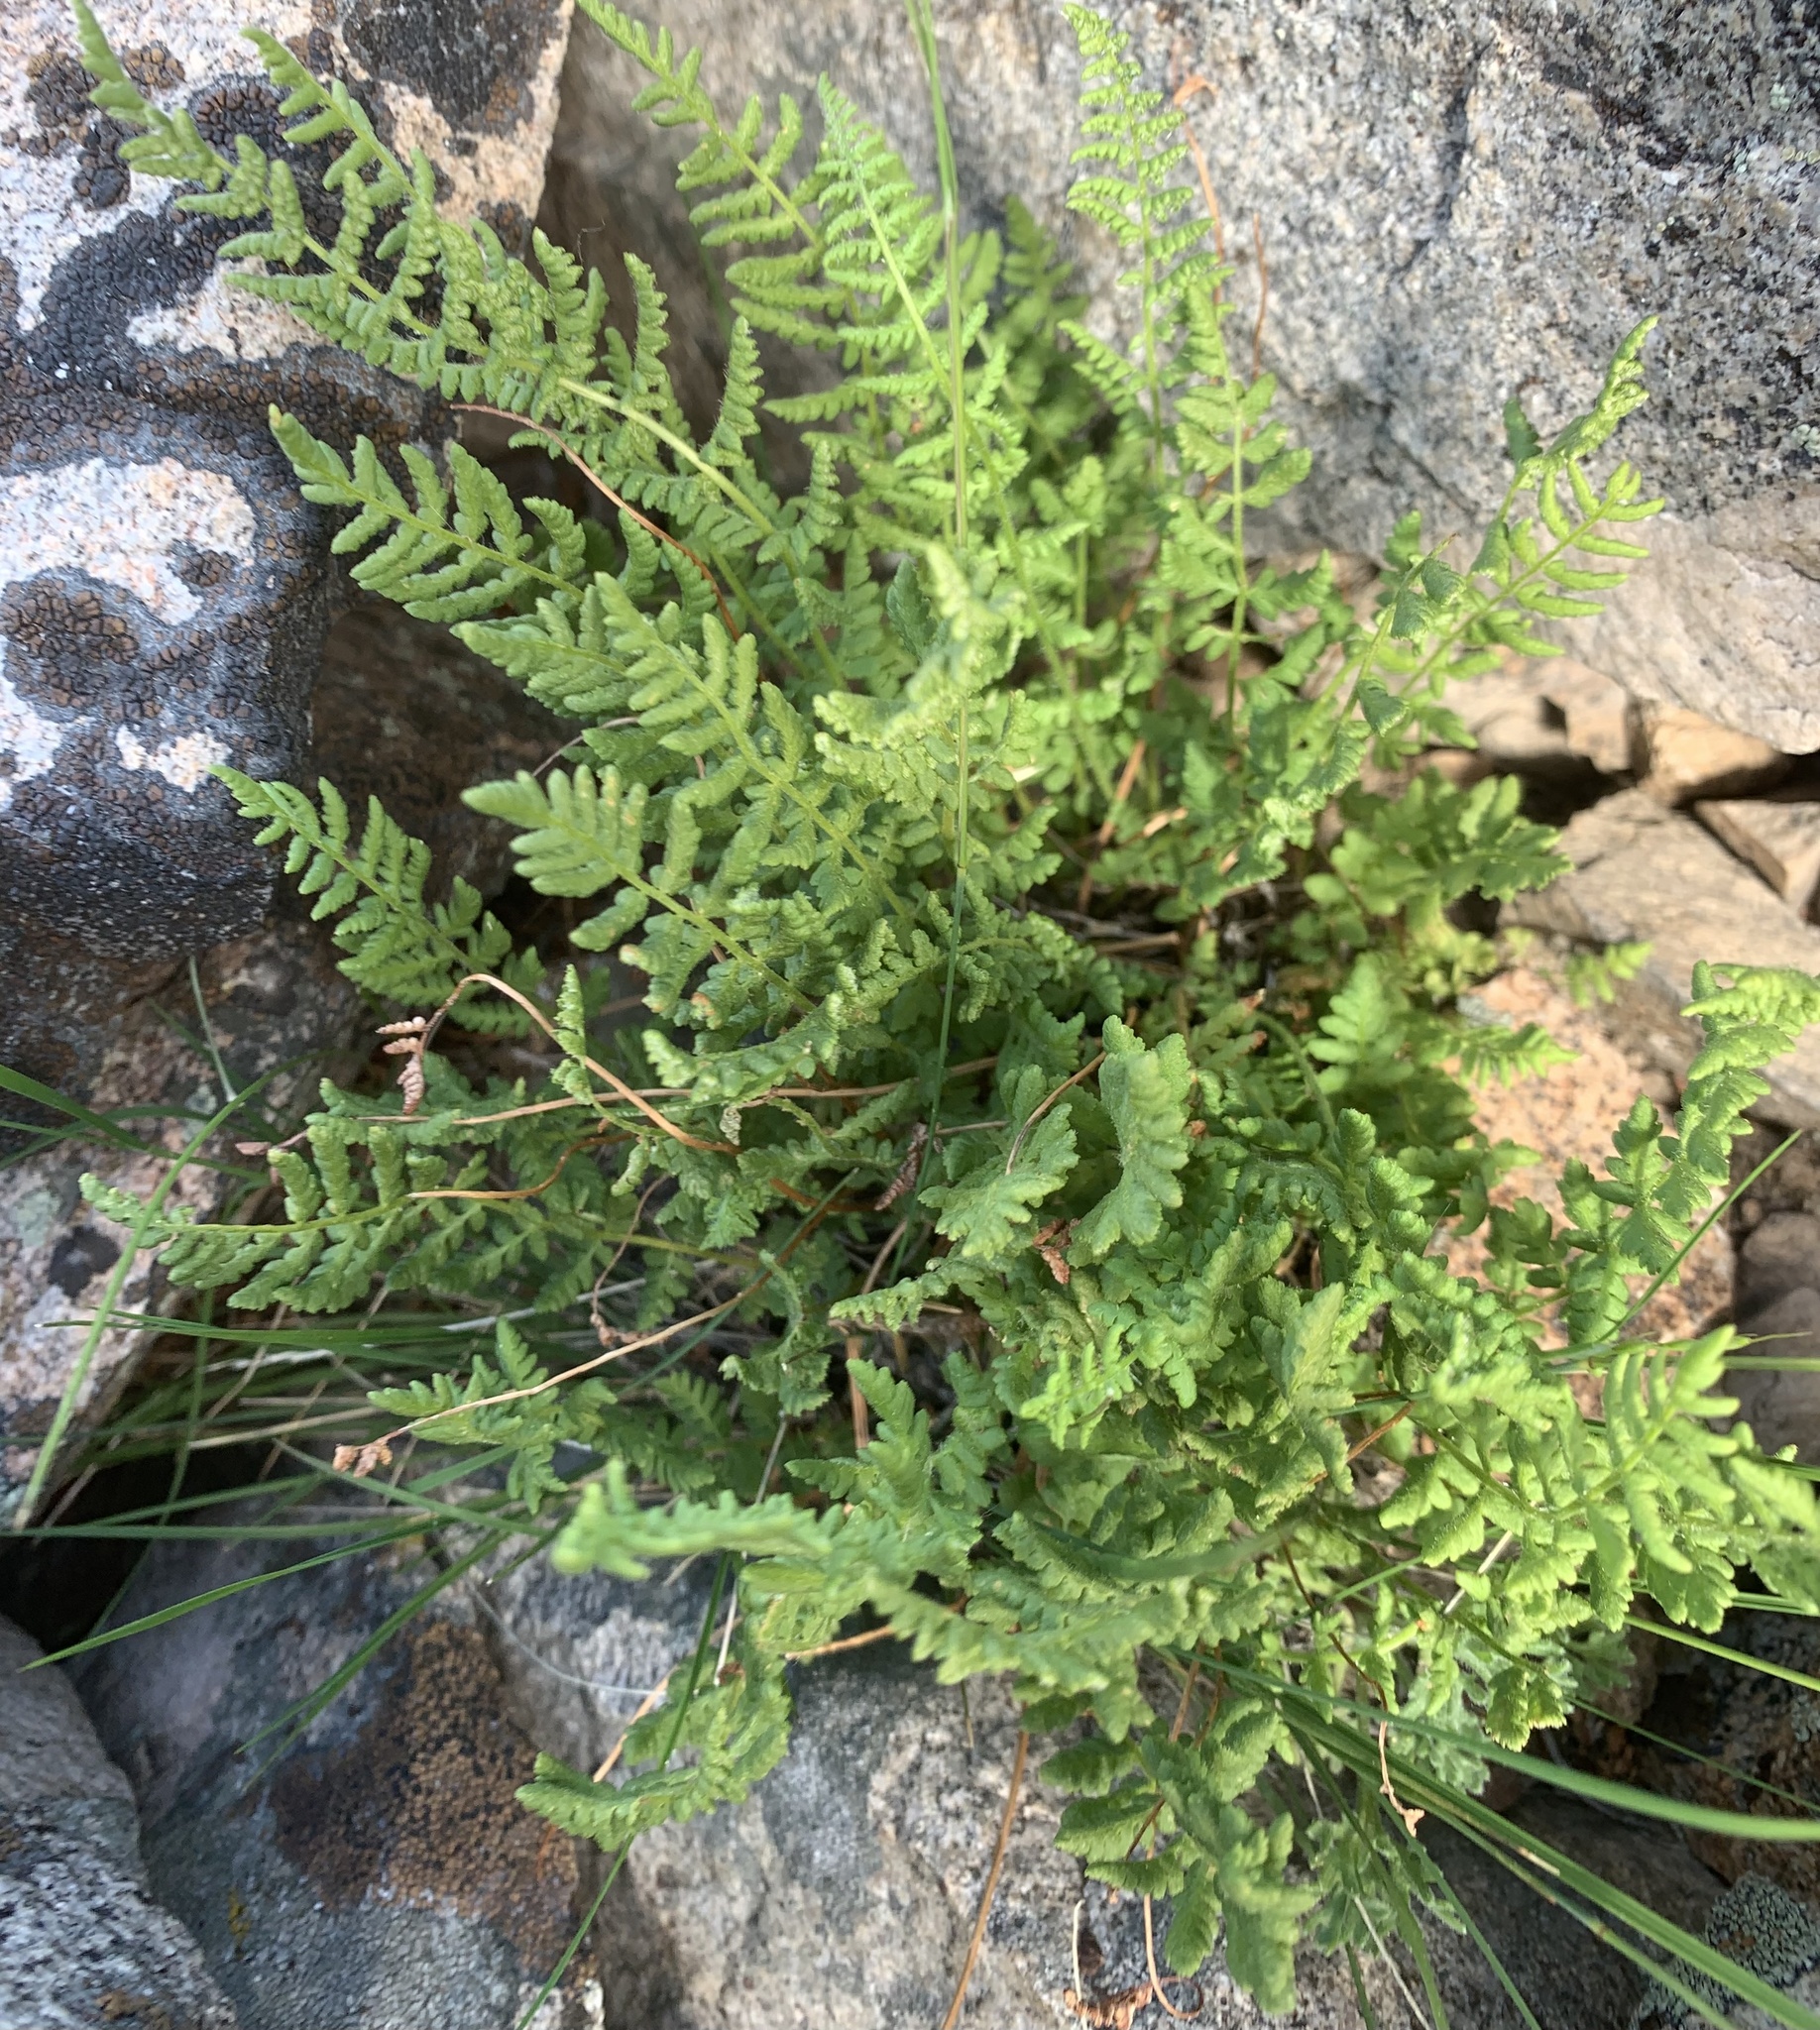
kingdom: Plantae
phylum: Tracheophyta
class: Polypodiopsida
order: Polypodiales
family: Woodsiaceae
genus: Physematium
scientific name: Physematium scopulinum
